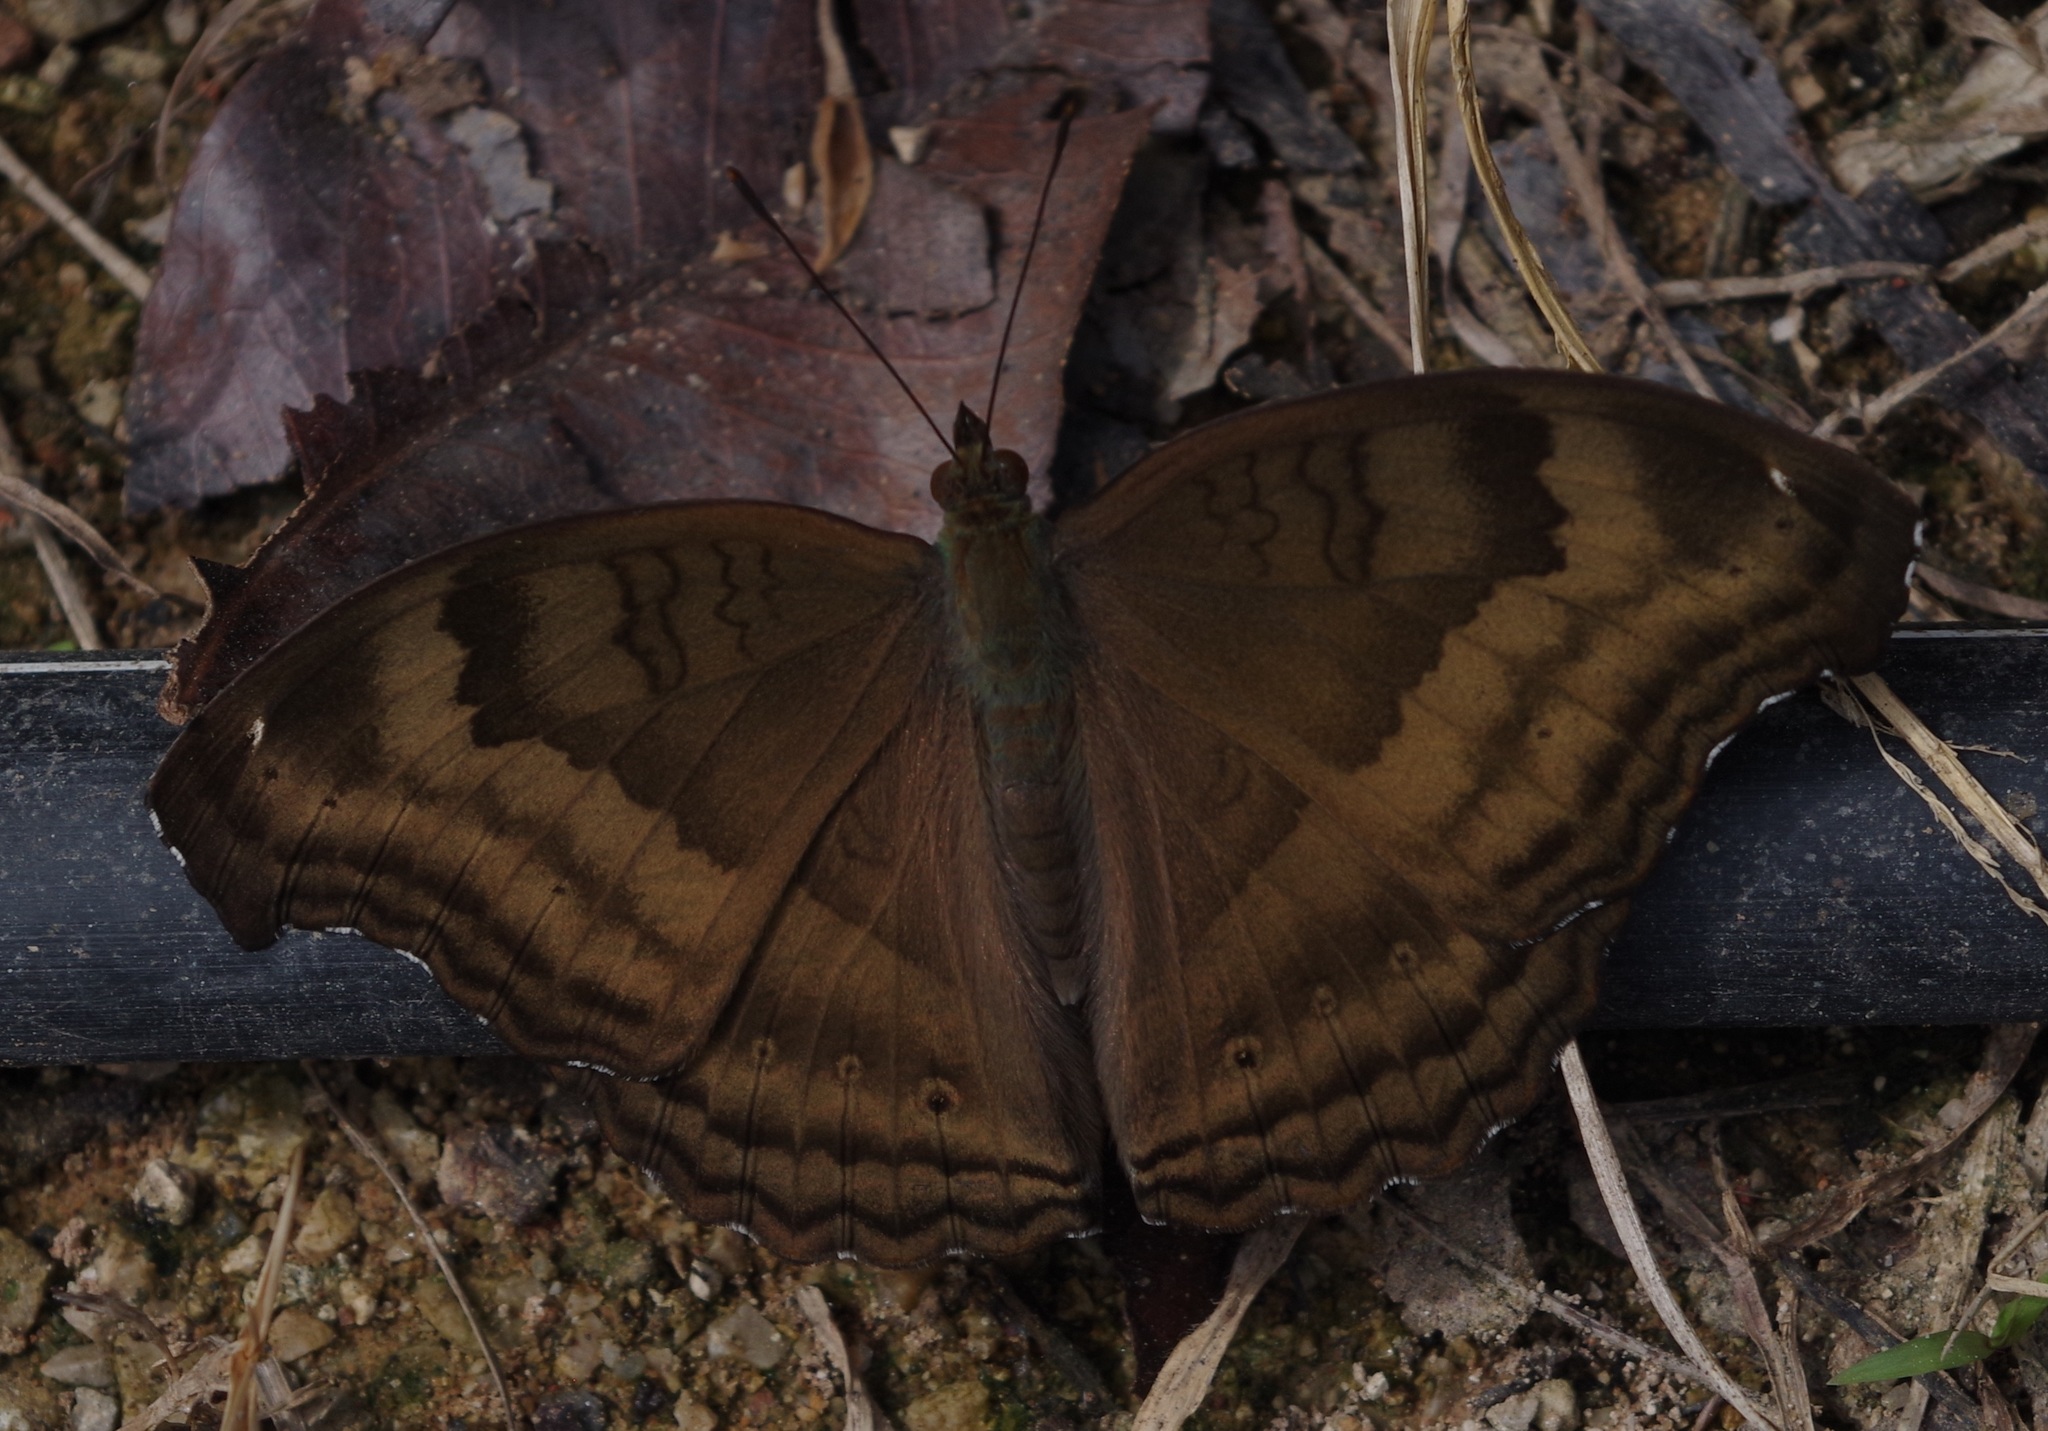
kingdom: Animalia
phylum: Arthropoda
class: Insecta
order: Lepidoptera
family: Nymphalidae
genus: Junonia
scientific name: Junonia iphita
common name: Chocolate pansy
